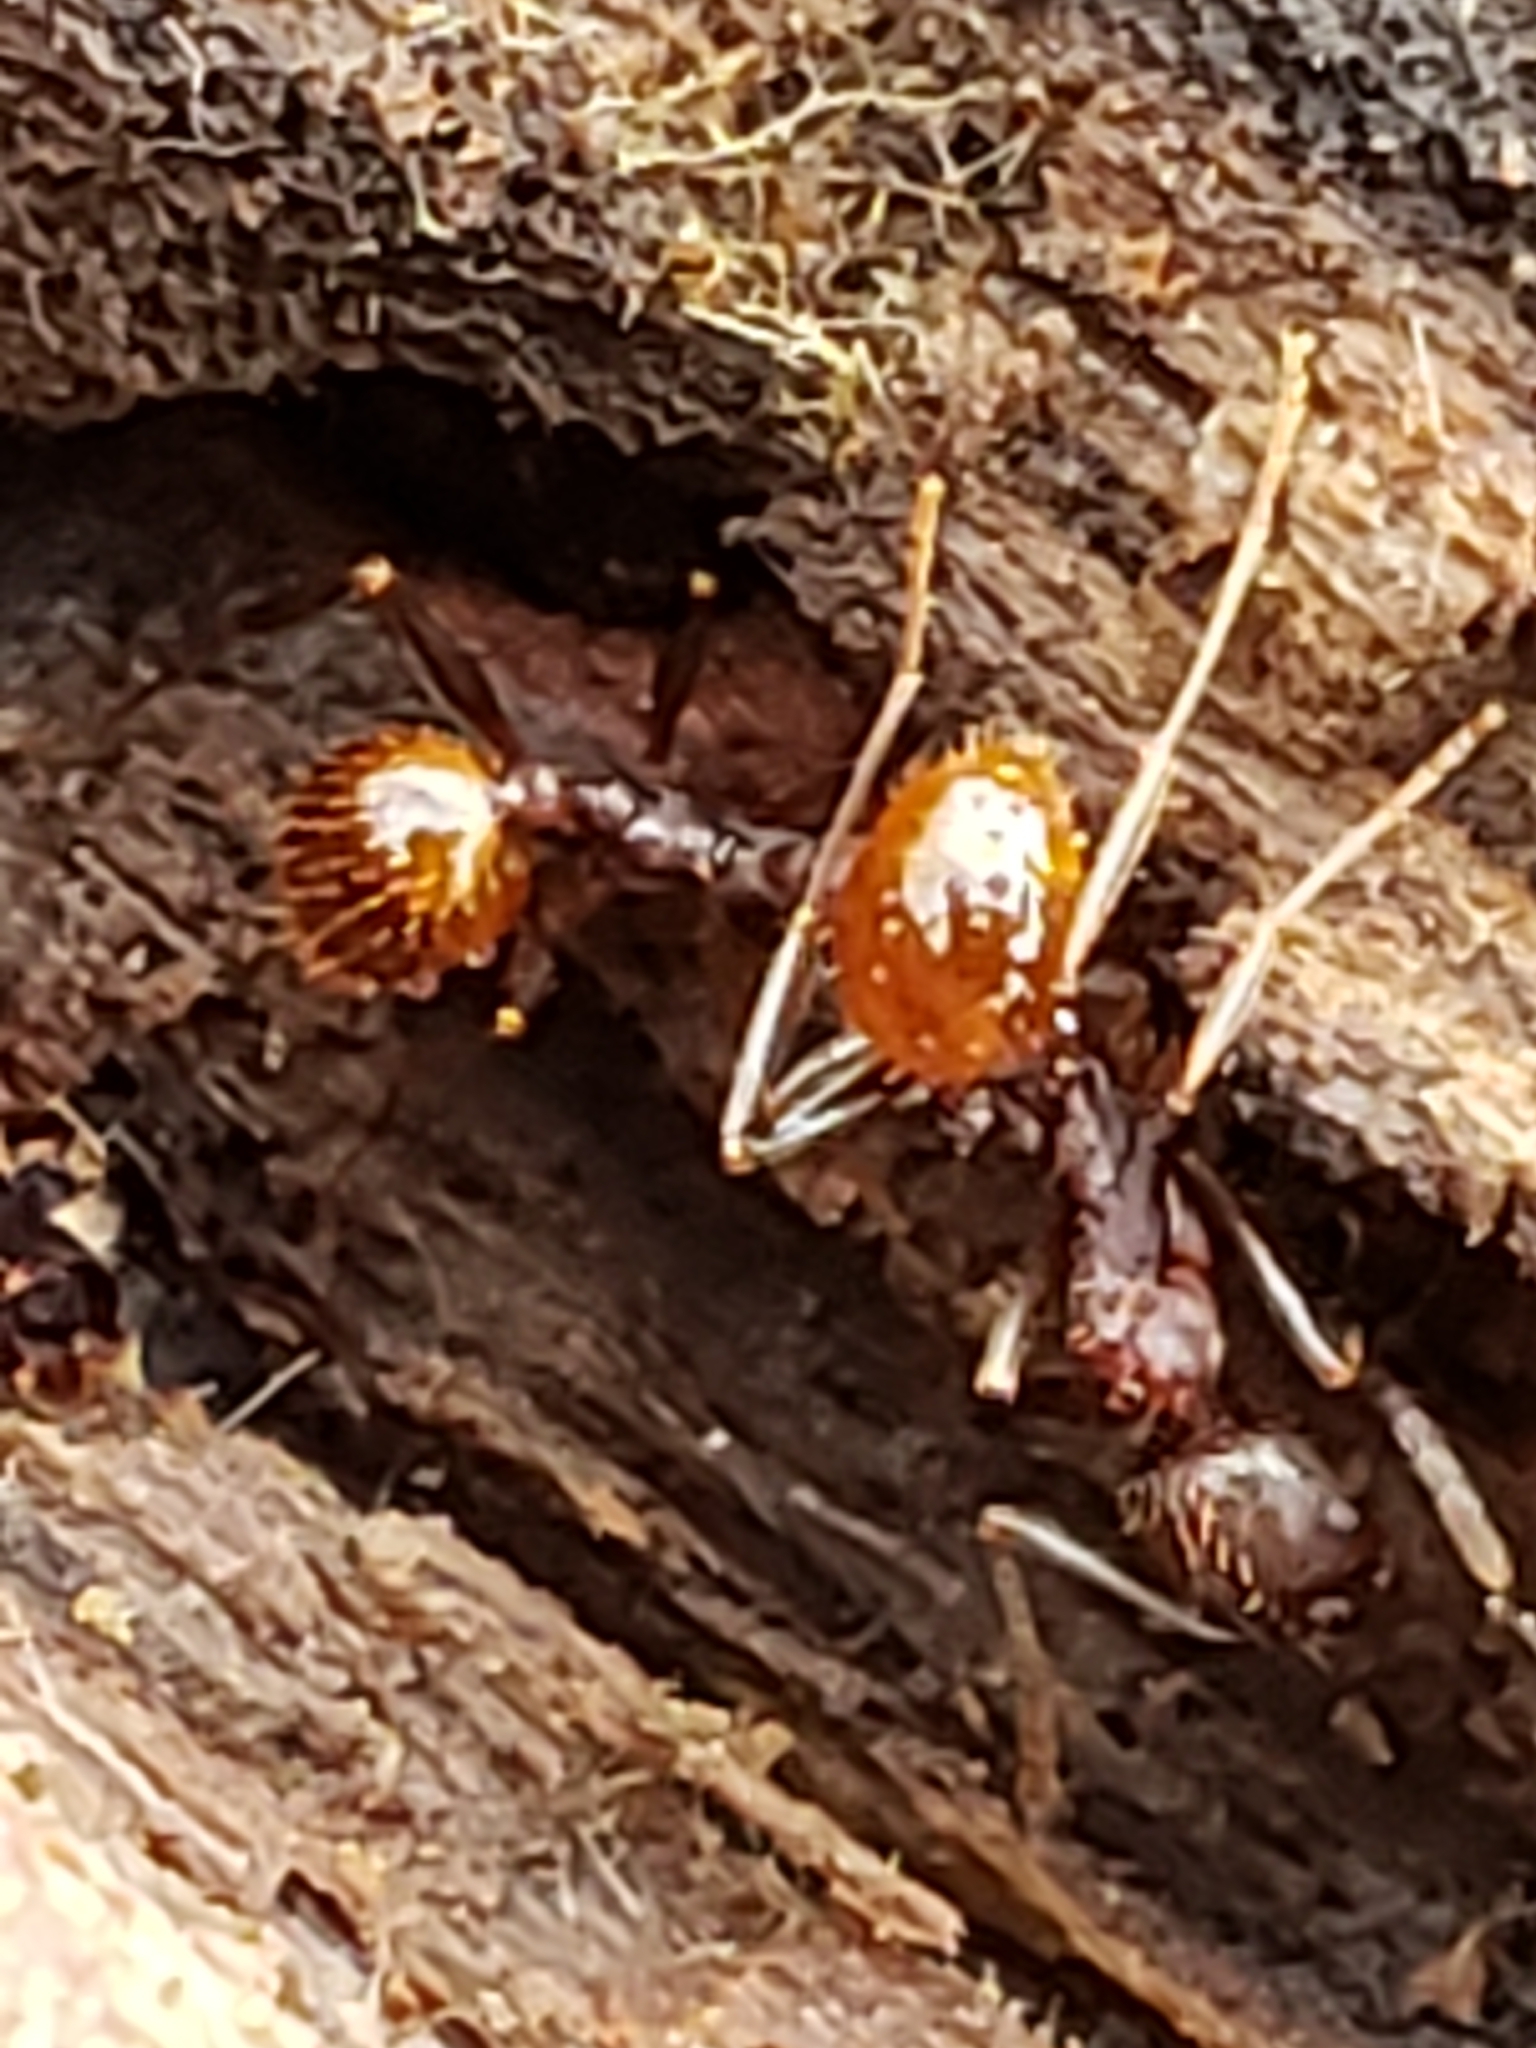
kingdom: Animalia
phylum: Arthropoda
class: Insecta
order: Hymenoptera
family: Formicidae
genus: Aphaenogaster
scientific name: Aphaenogaster fulva
